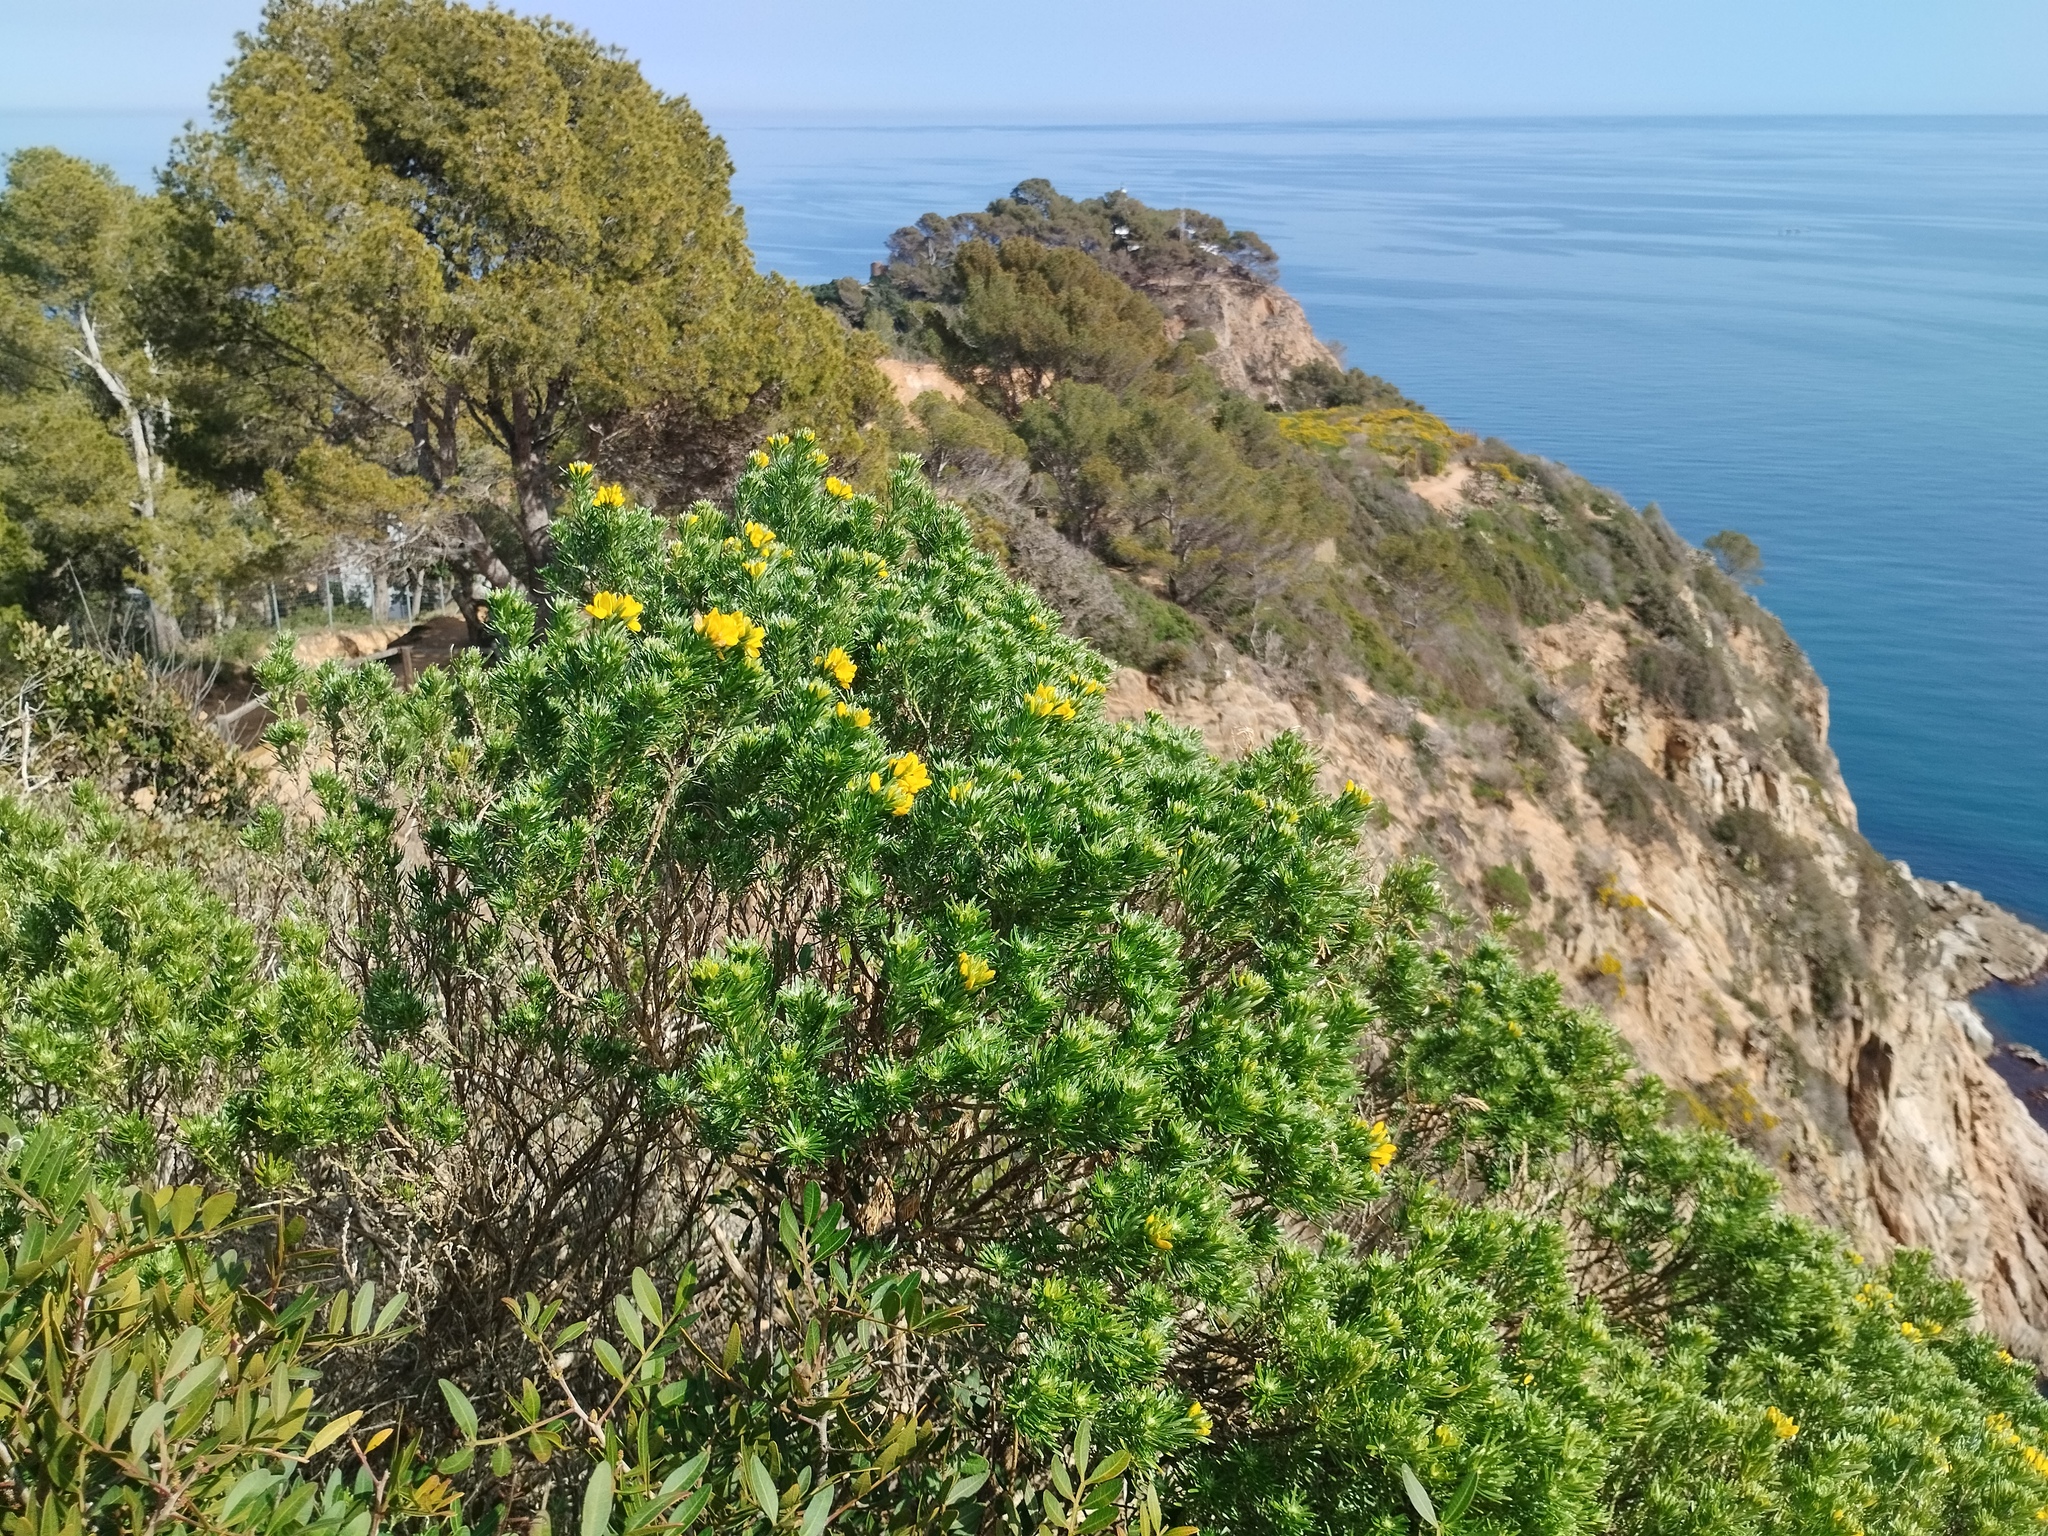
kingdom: Plantae
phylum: Tracheophyta
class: Magnoliopsida
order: Fabales
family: Fabaceae
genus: Genista
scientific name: Genista linifolia
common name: Mediterranean broom
